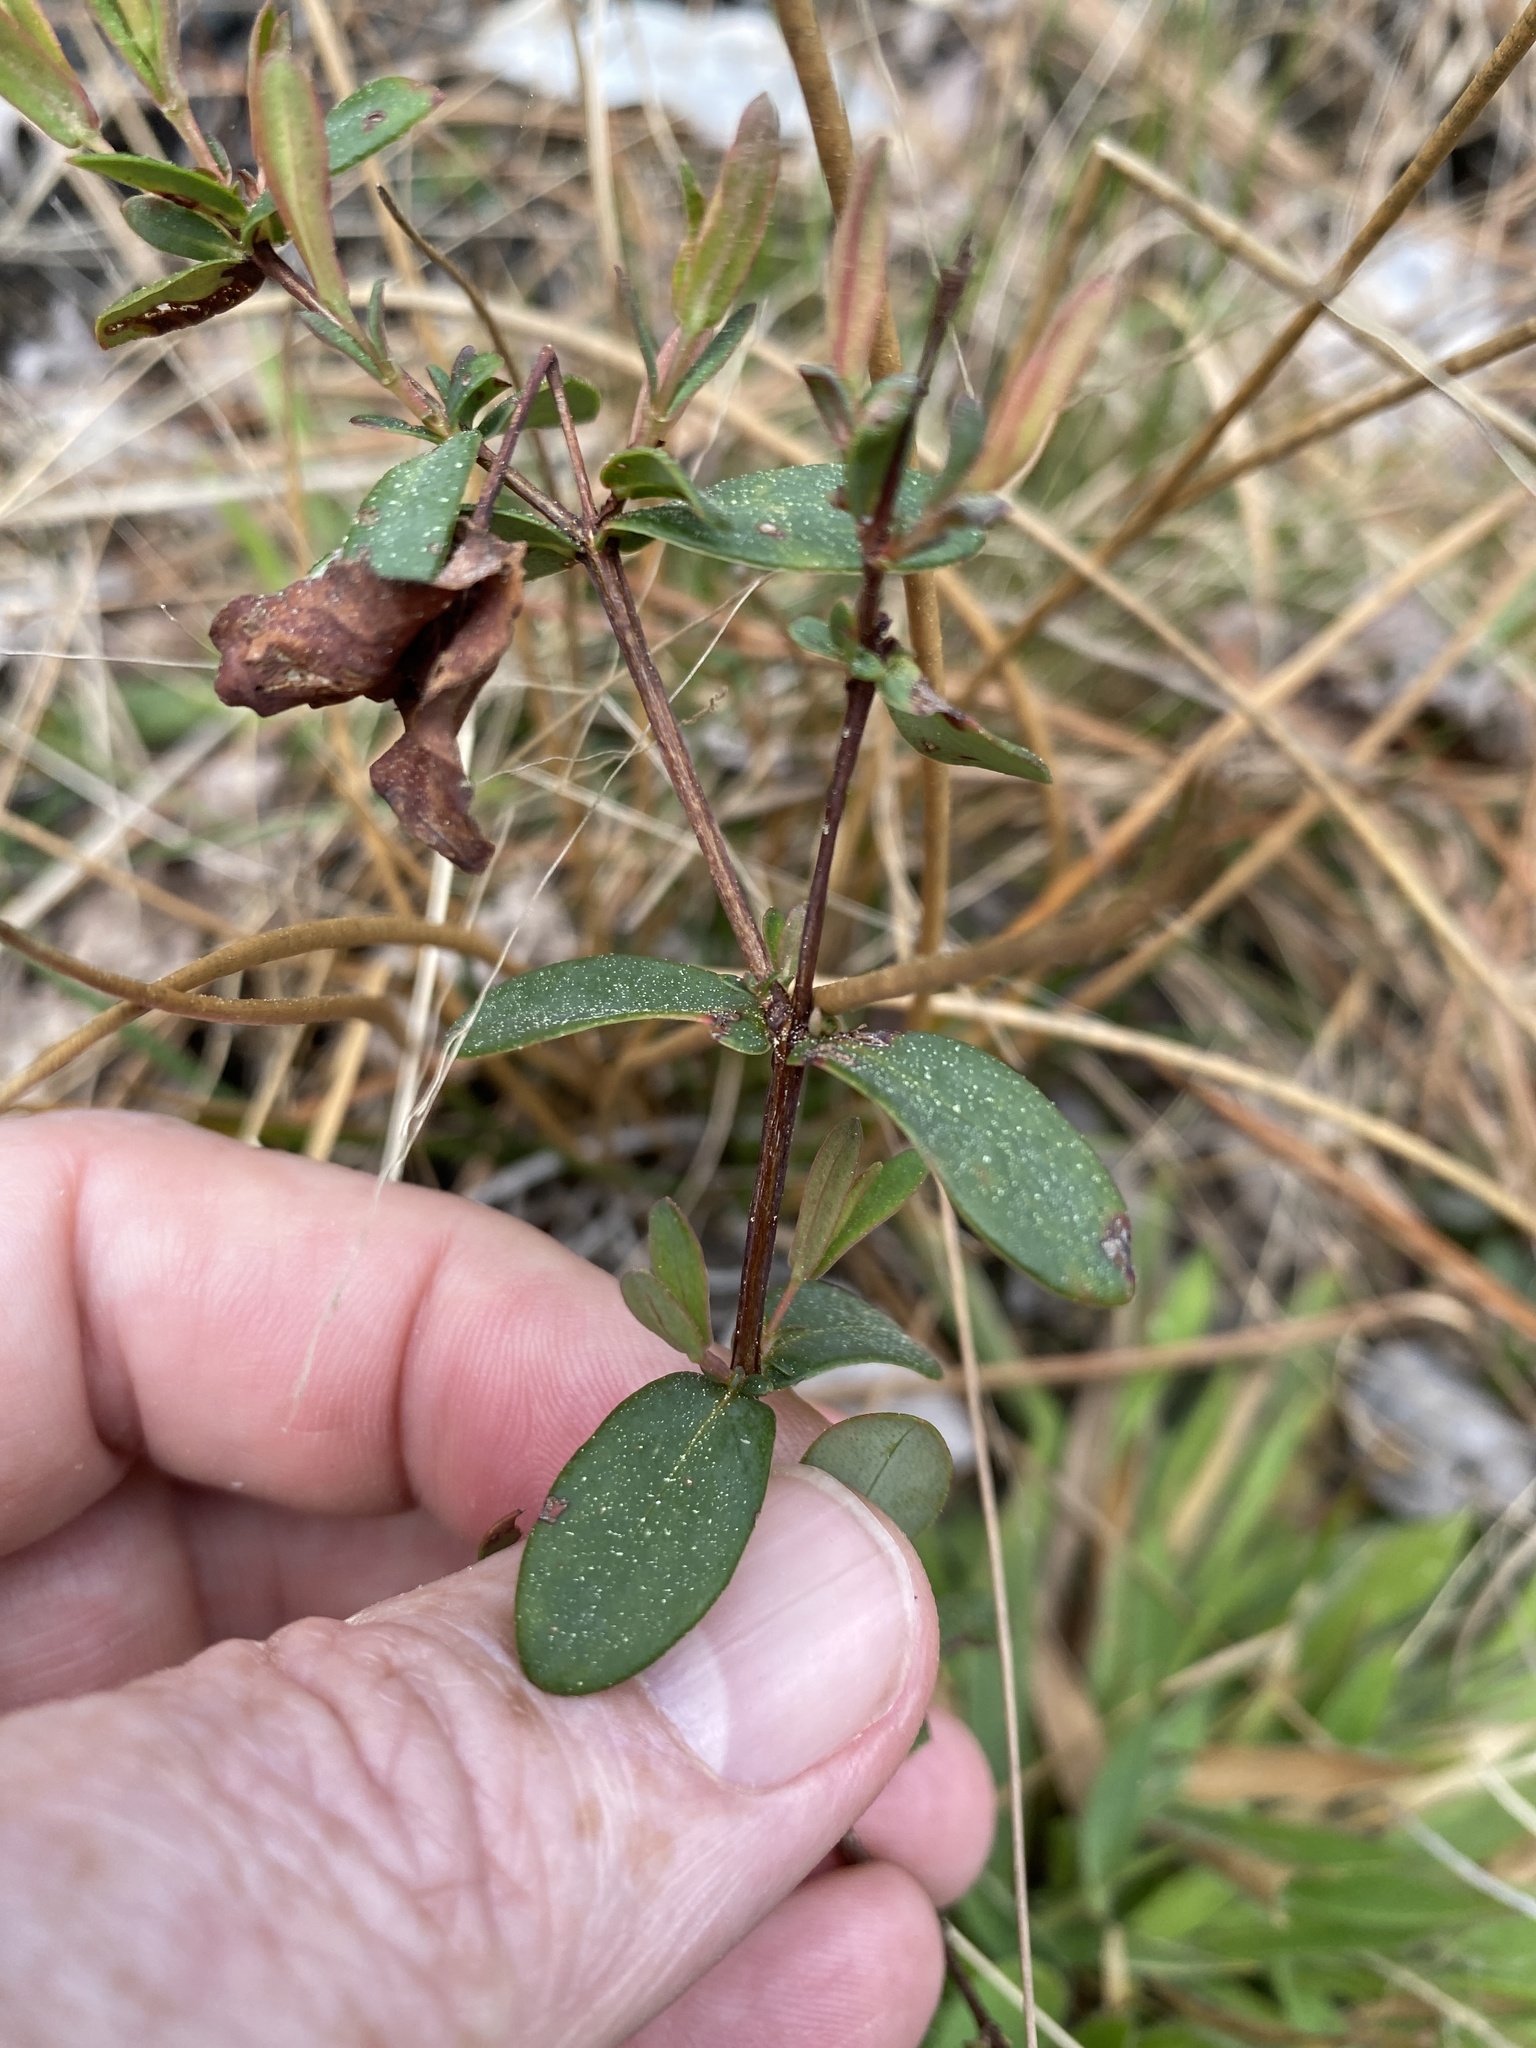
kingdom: Plantae
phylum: Tracheophyta
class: Magnoliopsida
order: Malpighiales
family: Hypericaceae
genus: Hypericum
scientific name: Hypericum crux-andreae
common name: St.-peter's-wort
